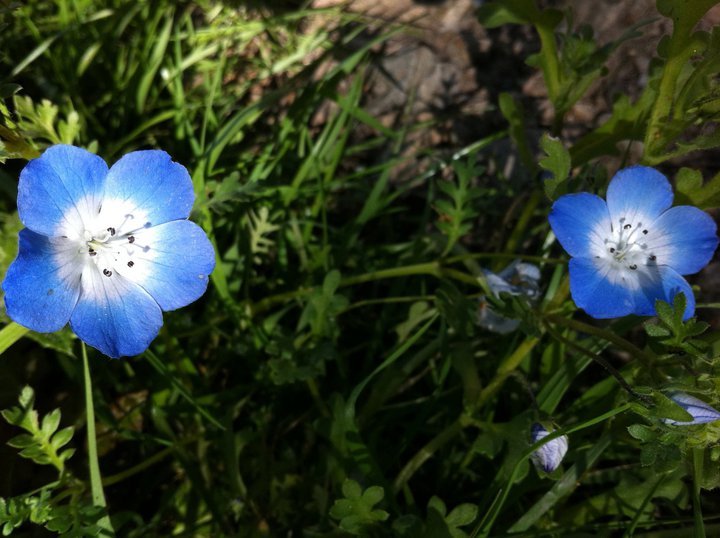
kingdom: Plantae
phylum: Tracheophyta
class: Magnoliopsida
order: Boraginales
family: Hydrophyllaceae
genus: Nemophila
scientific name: Nemophila menziesii
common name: Baby's-blue-eyes
